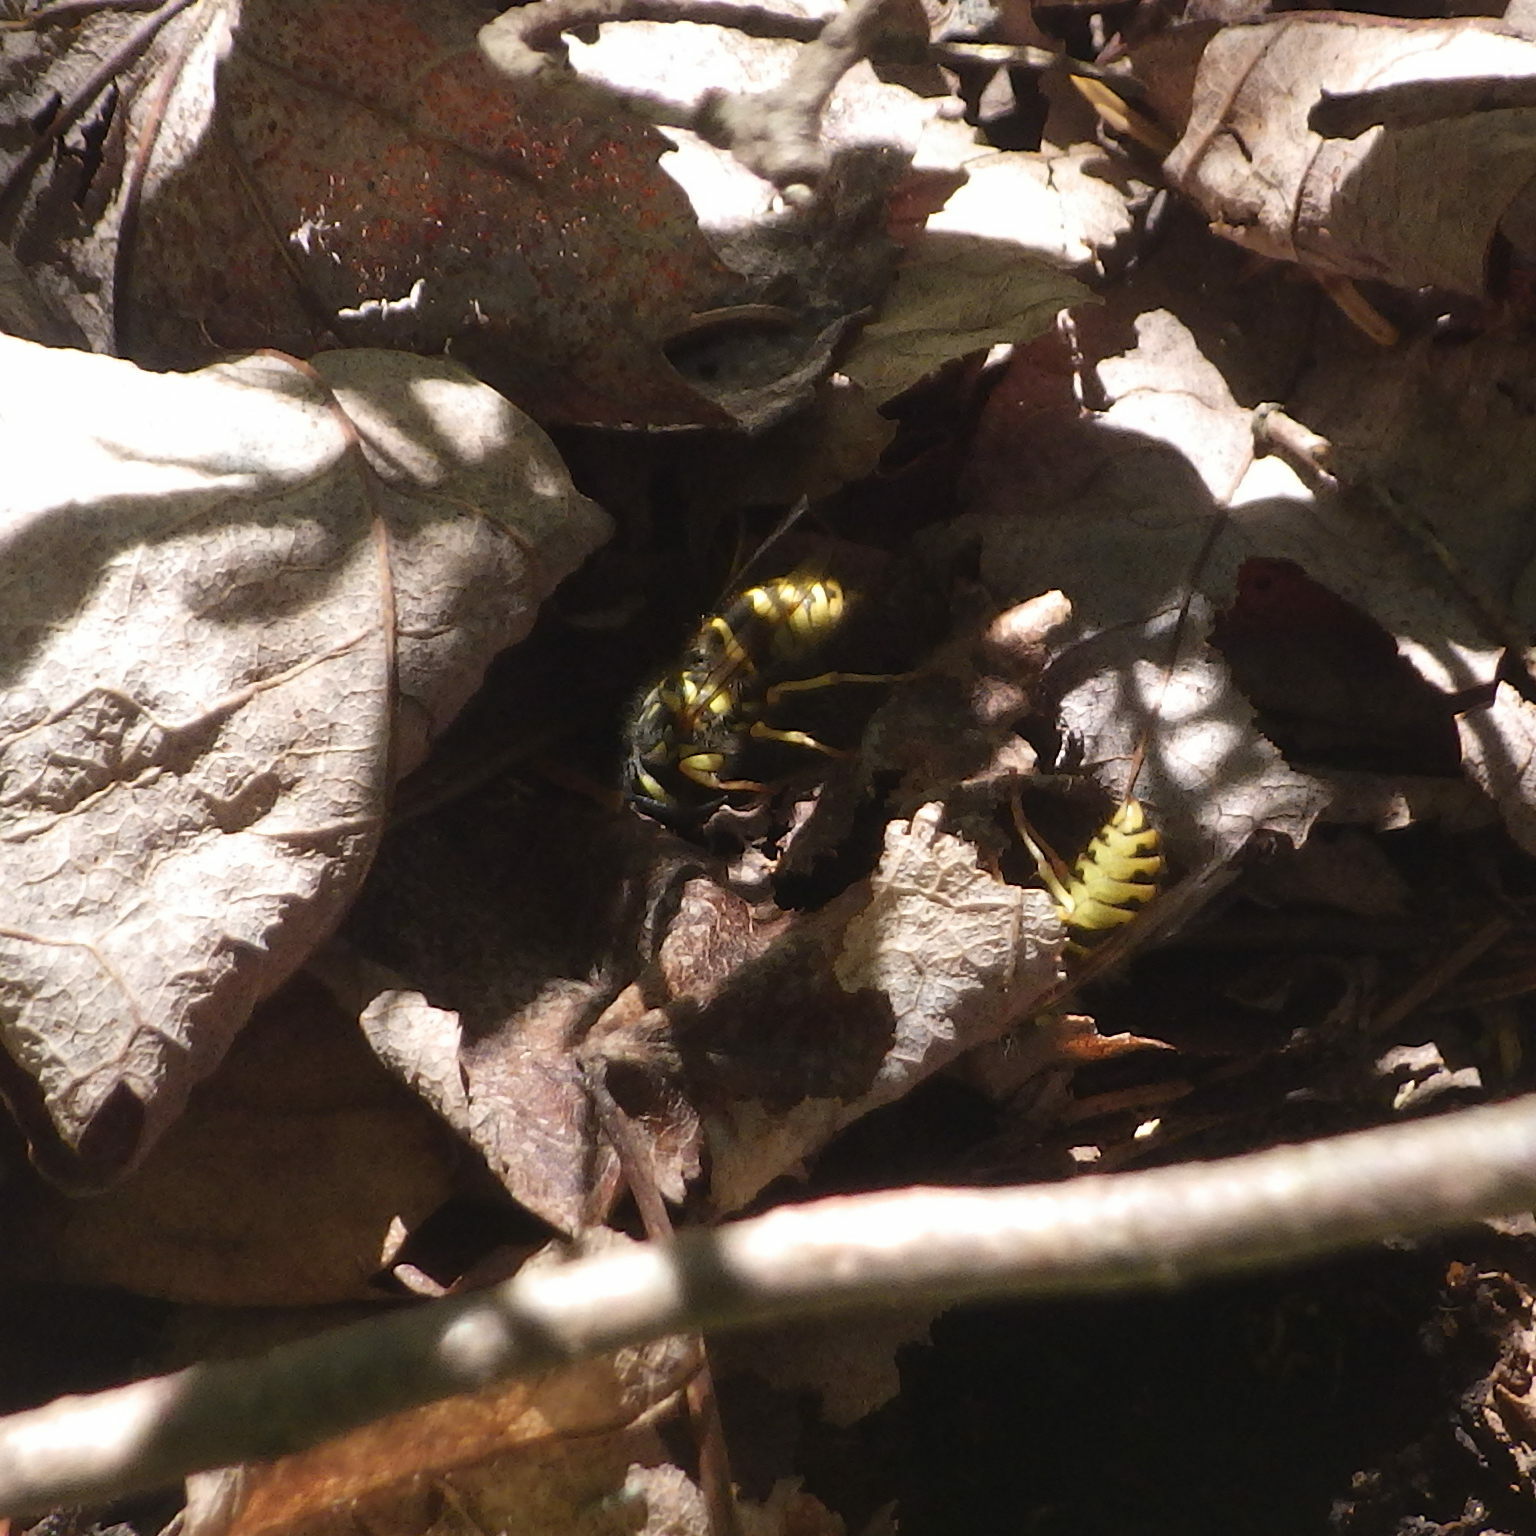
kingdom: Animalia
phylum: Arthropoda
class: Insecta
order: Hymenoptera
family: Vespidae
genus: Vespula
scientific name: Vespula flavopilosa
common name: Downy yellowjacket
